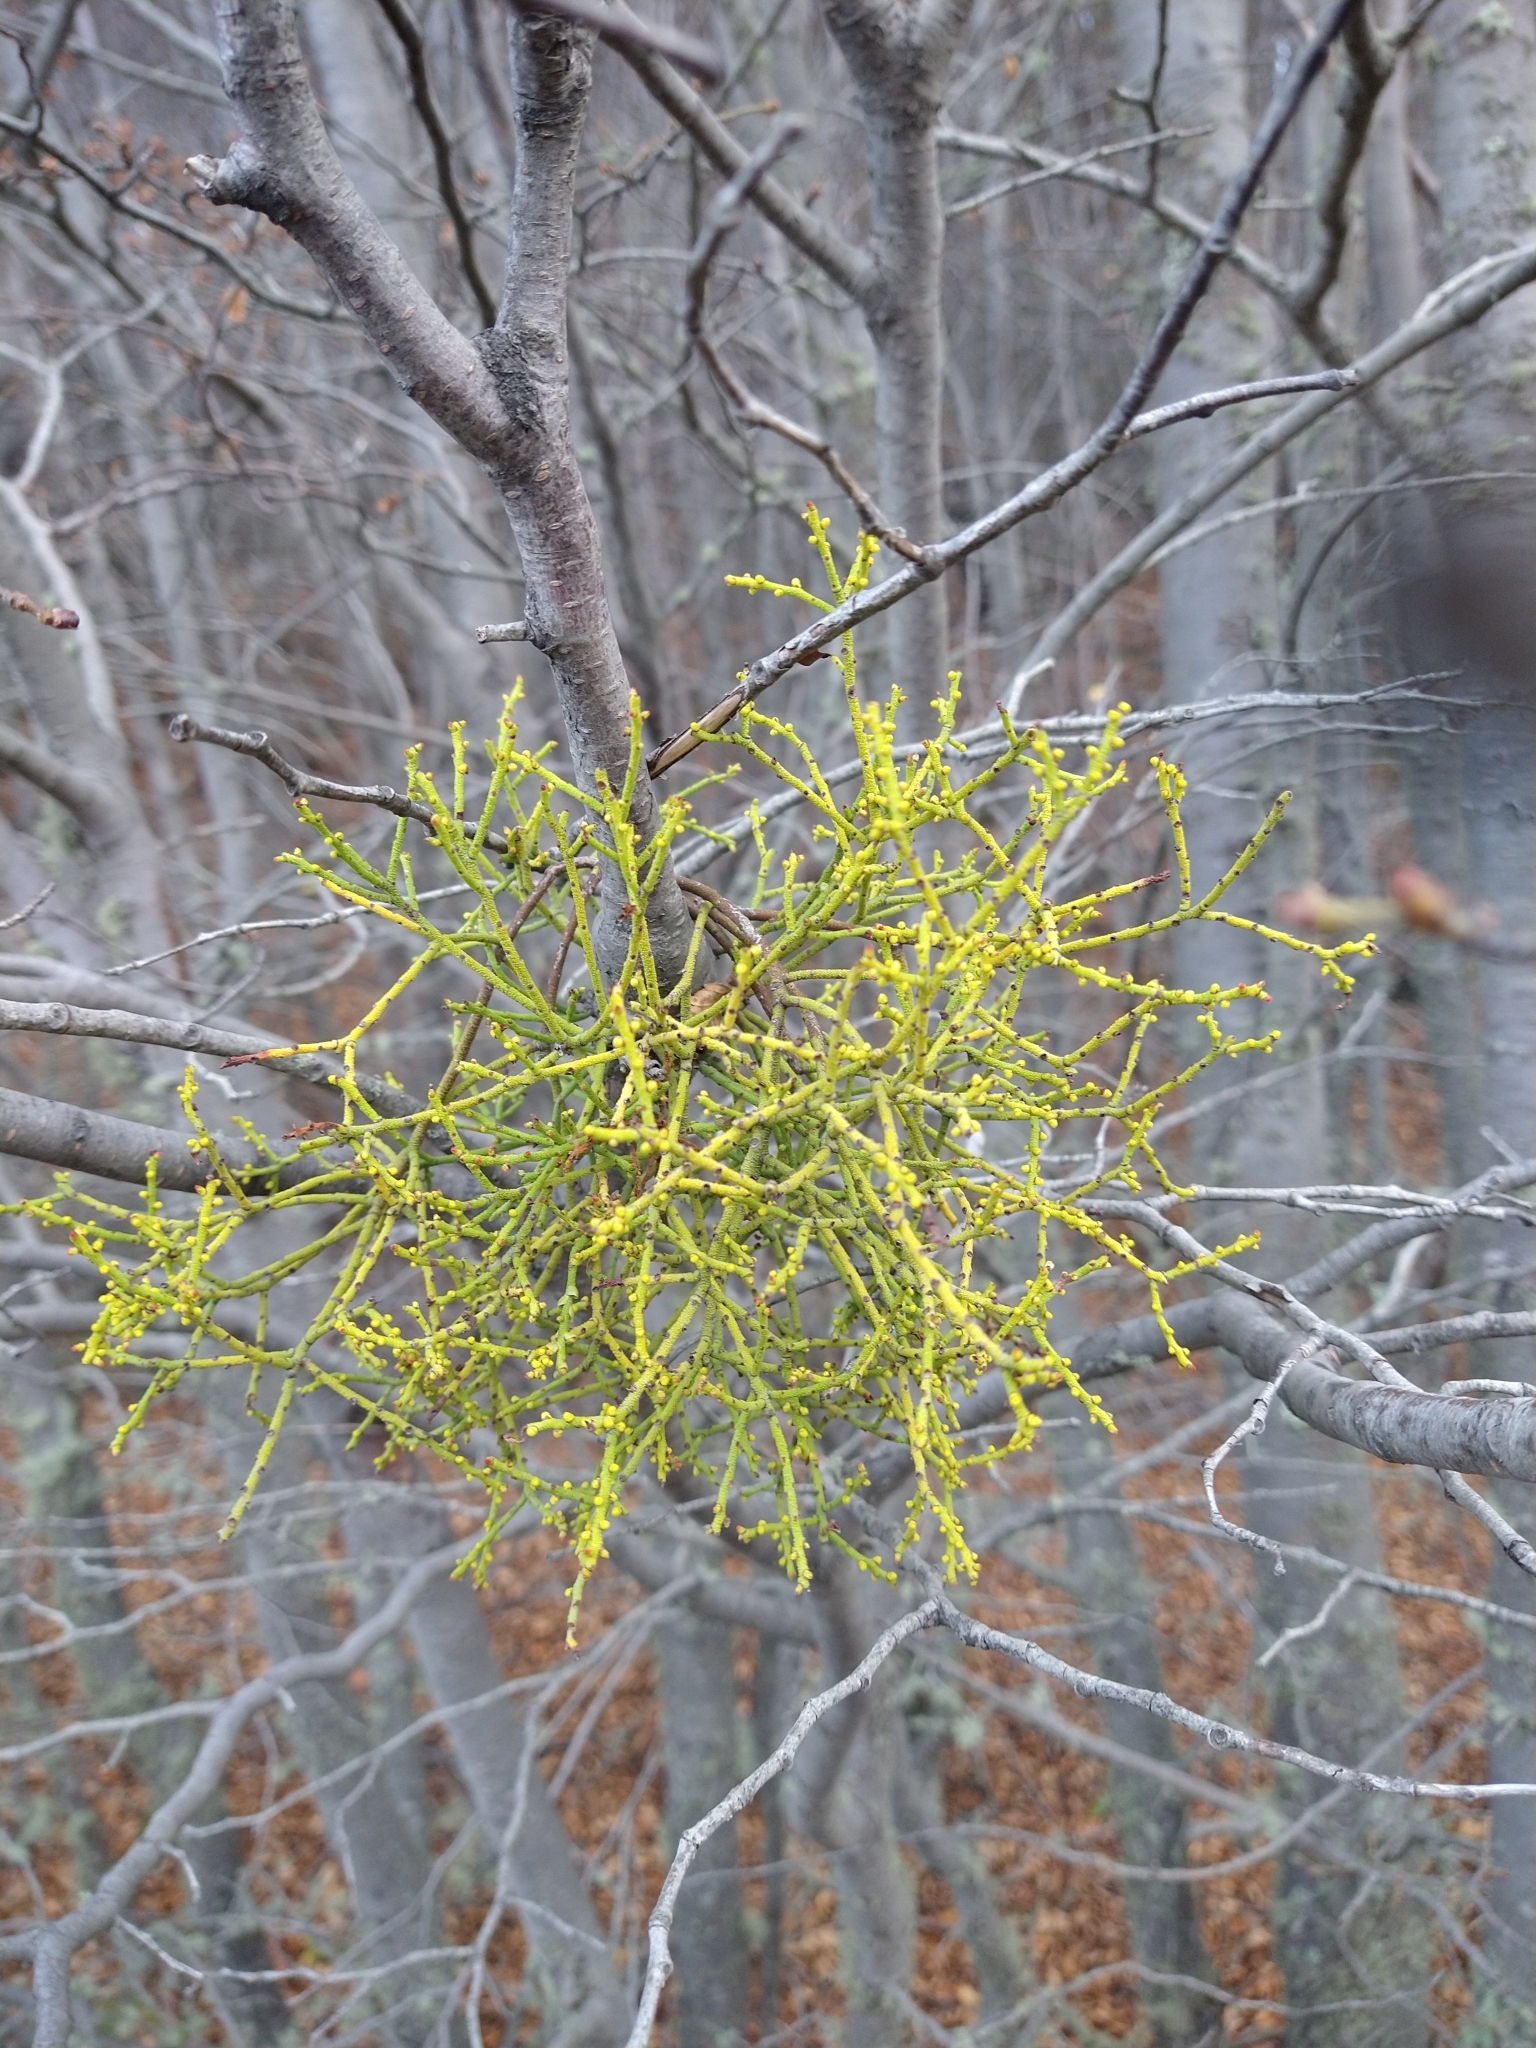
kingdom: Plantae
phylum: Tracheophyta
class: Magnoliopsida
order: Santalales
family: Misodendraceae
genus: Misodendrum
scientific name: Misodendrum punctulatum
